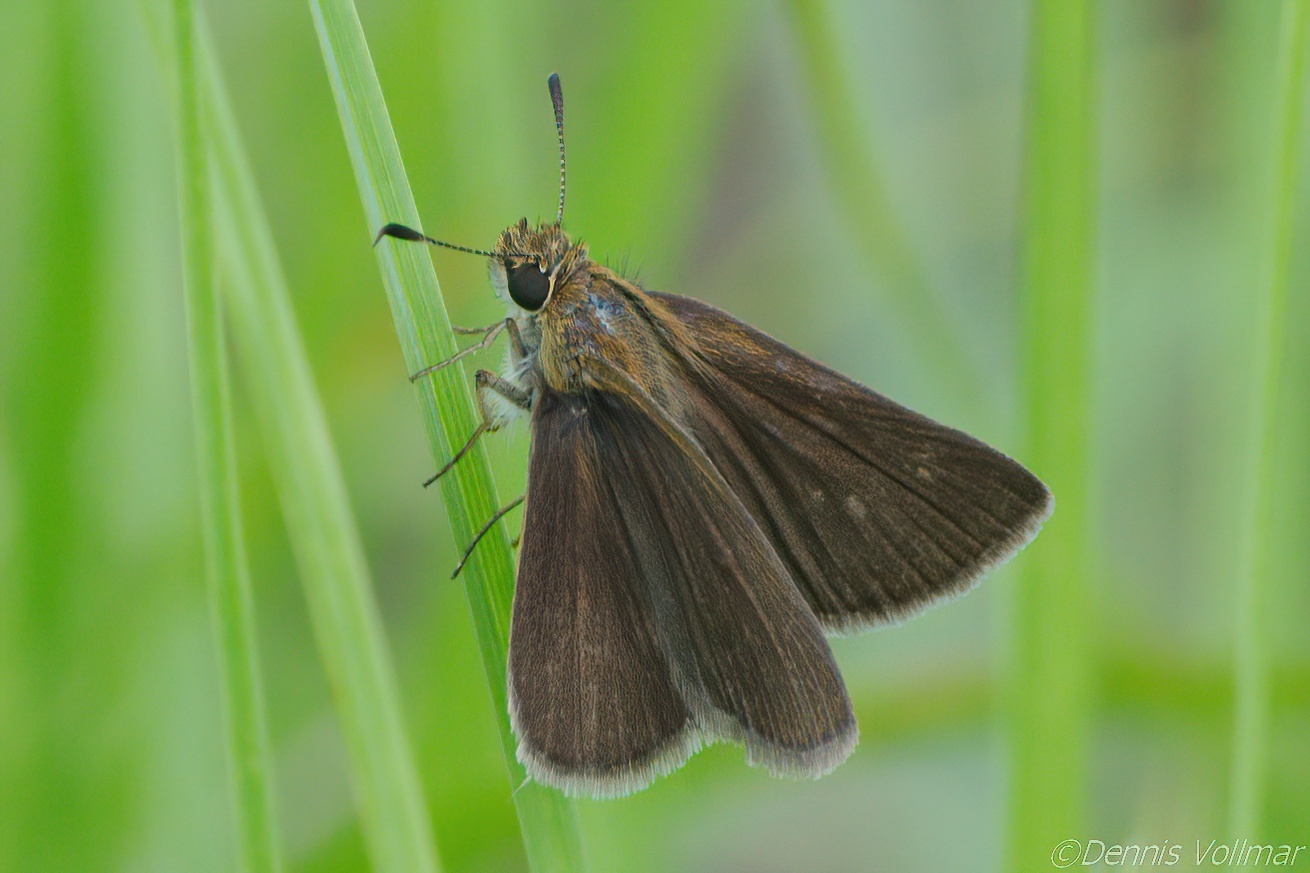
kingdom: Animalia
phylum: Arthropoda
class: Insecta
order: Lepidoptera
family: Hesperiidae
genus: Nastra
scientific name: Nastra
